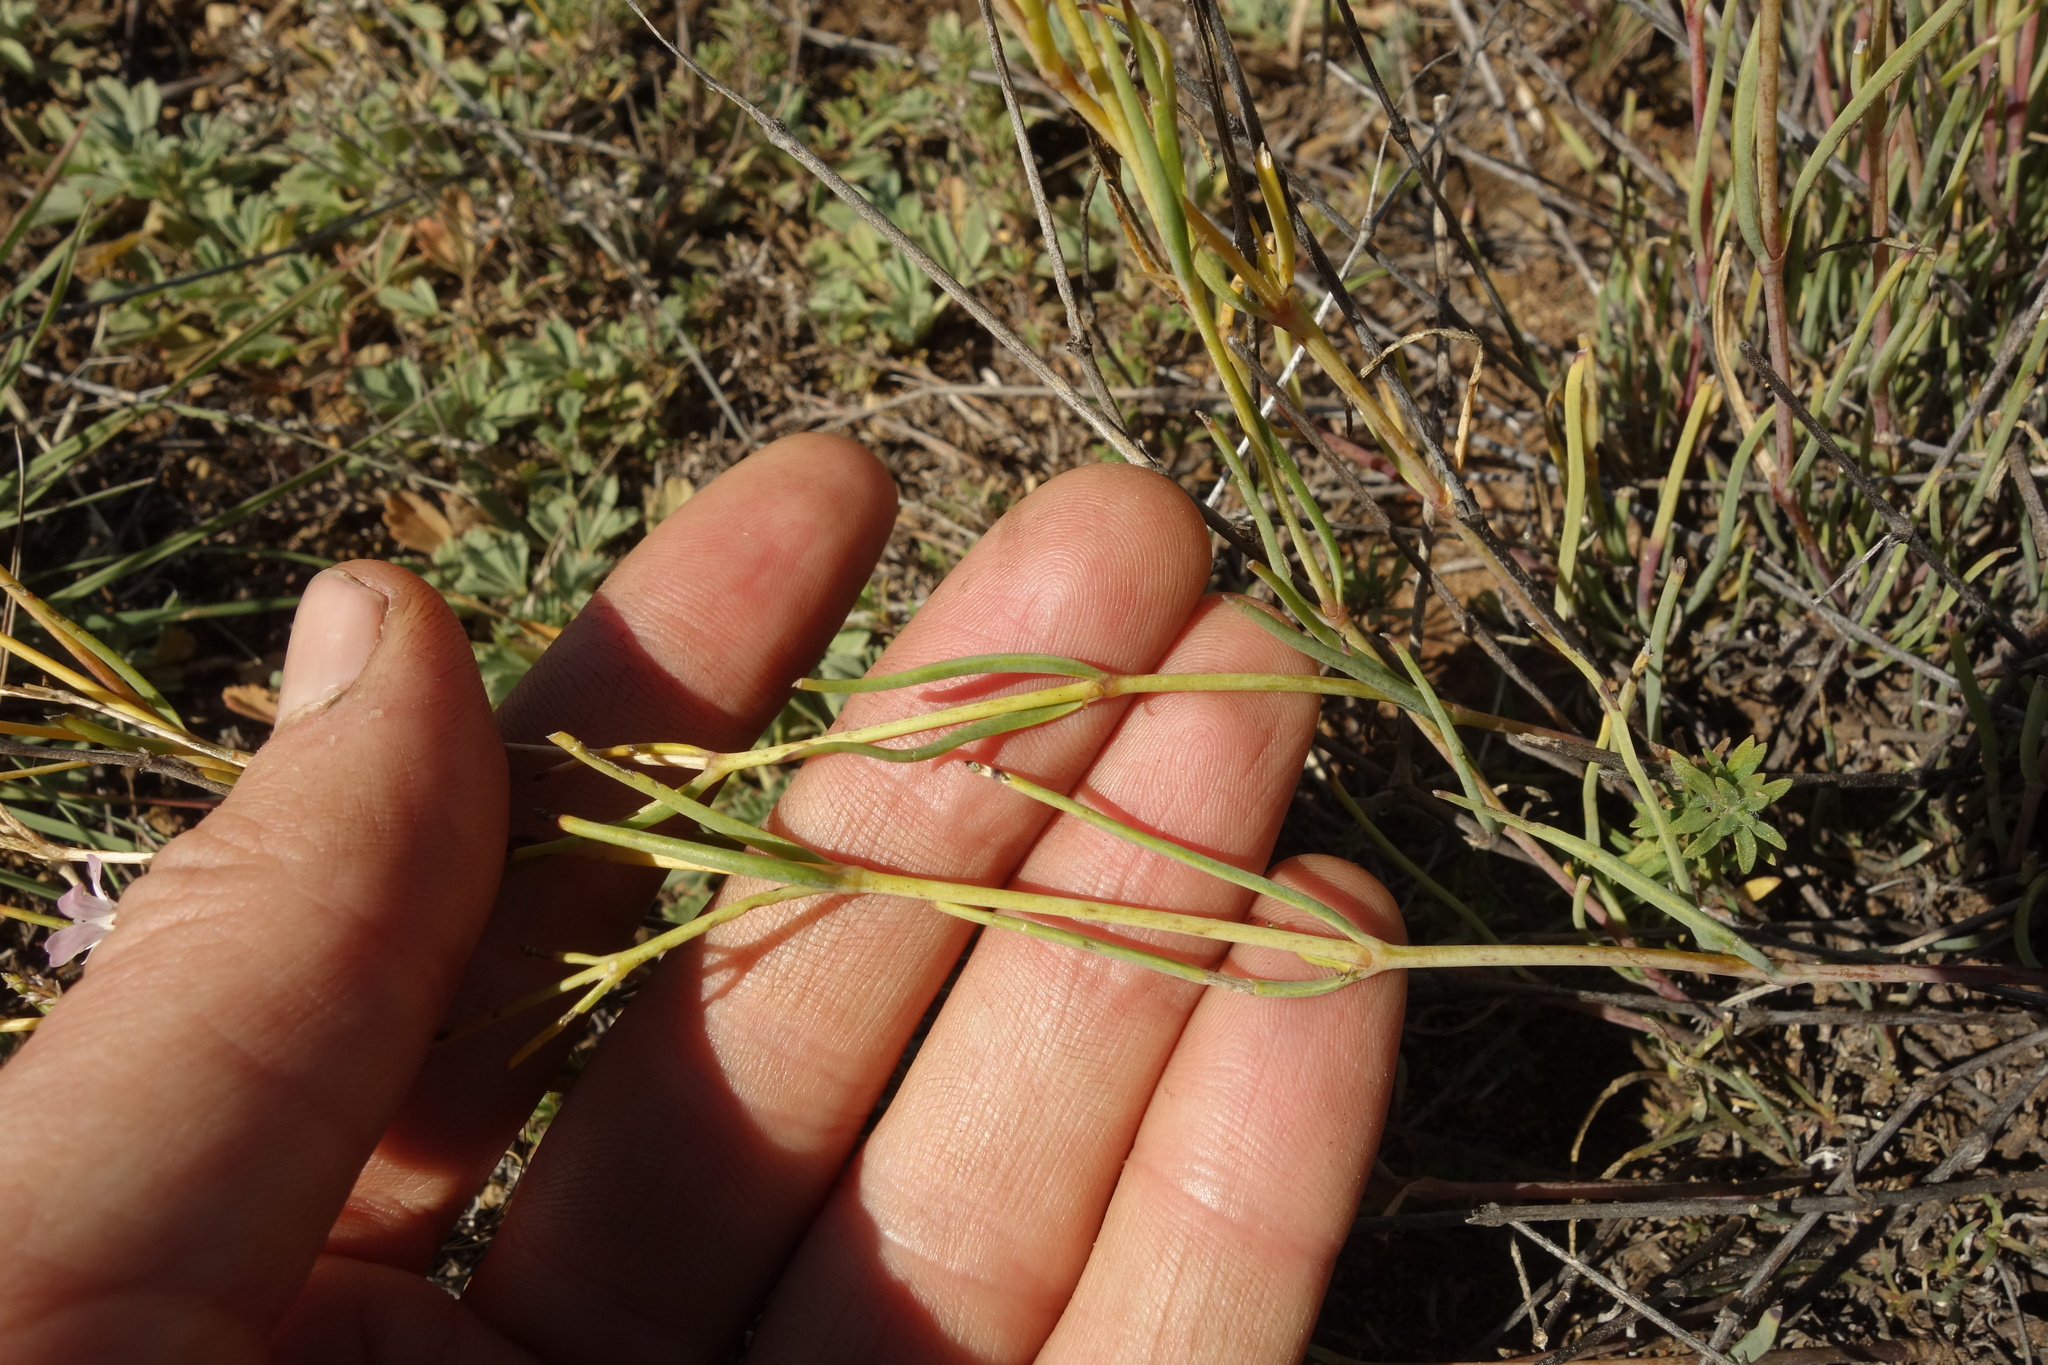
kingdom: Plantae
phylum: Tracheophyta
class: Magnoliopsida
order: Caryophyllales
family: Caryophyllaceae
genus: Gypsophila
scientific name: Gypsophila patrinii
